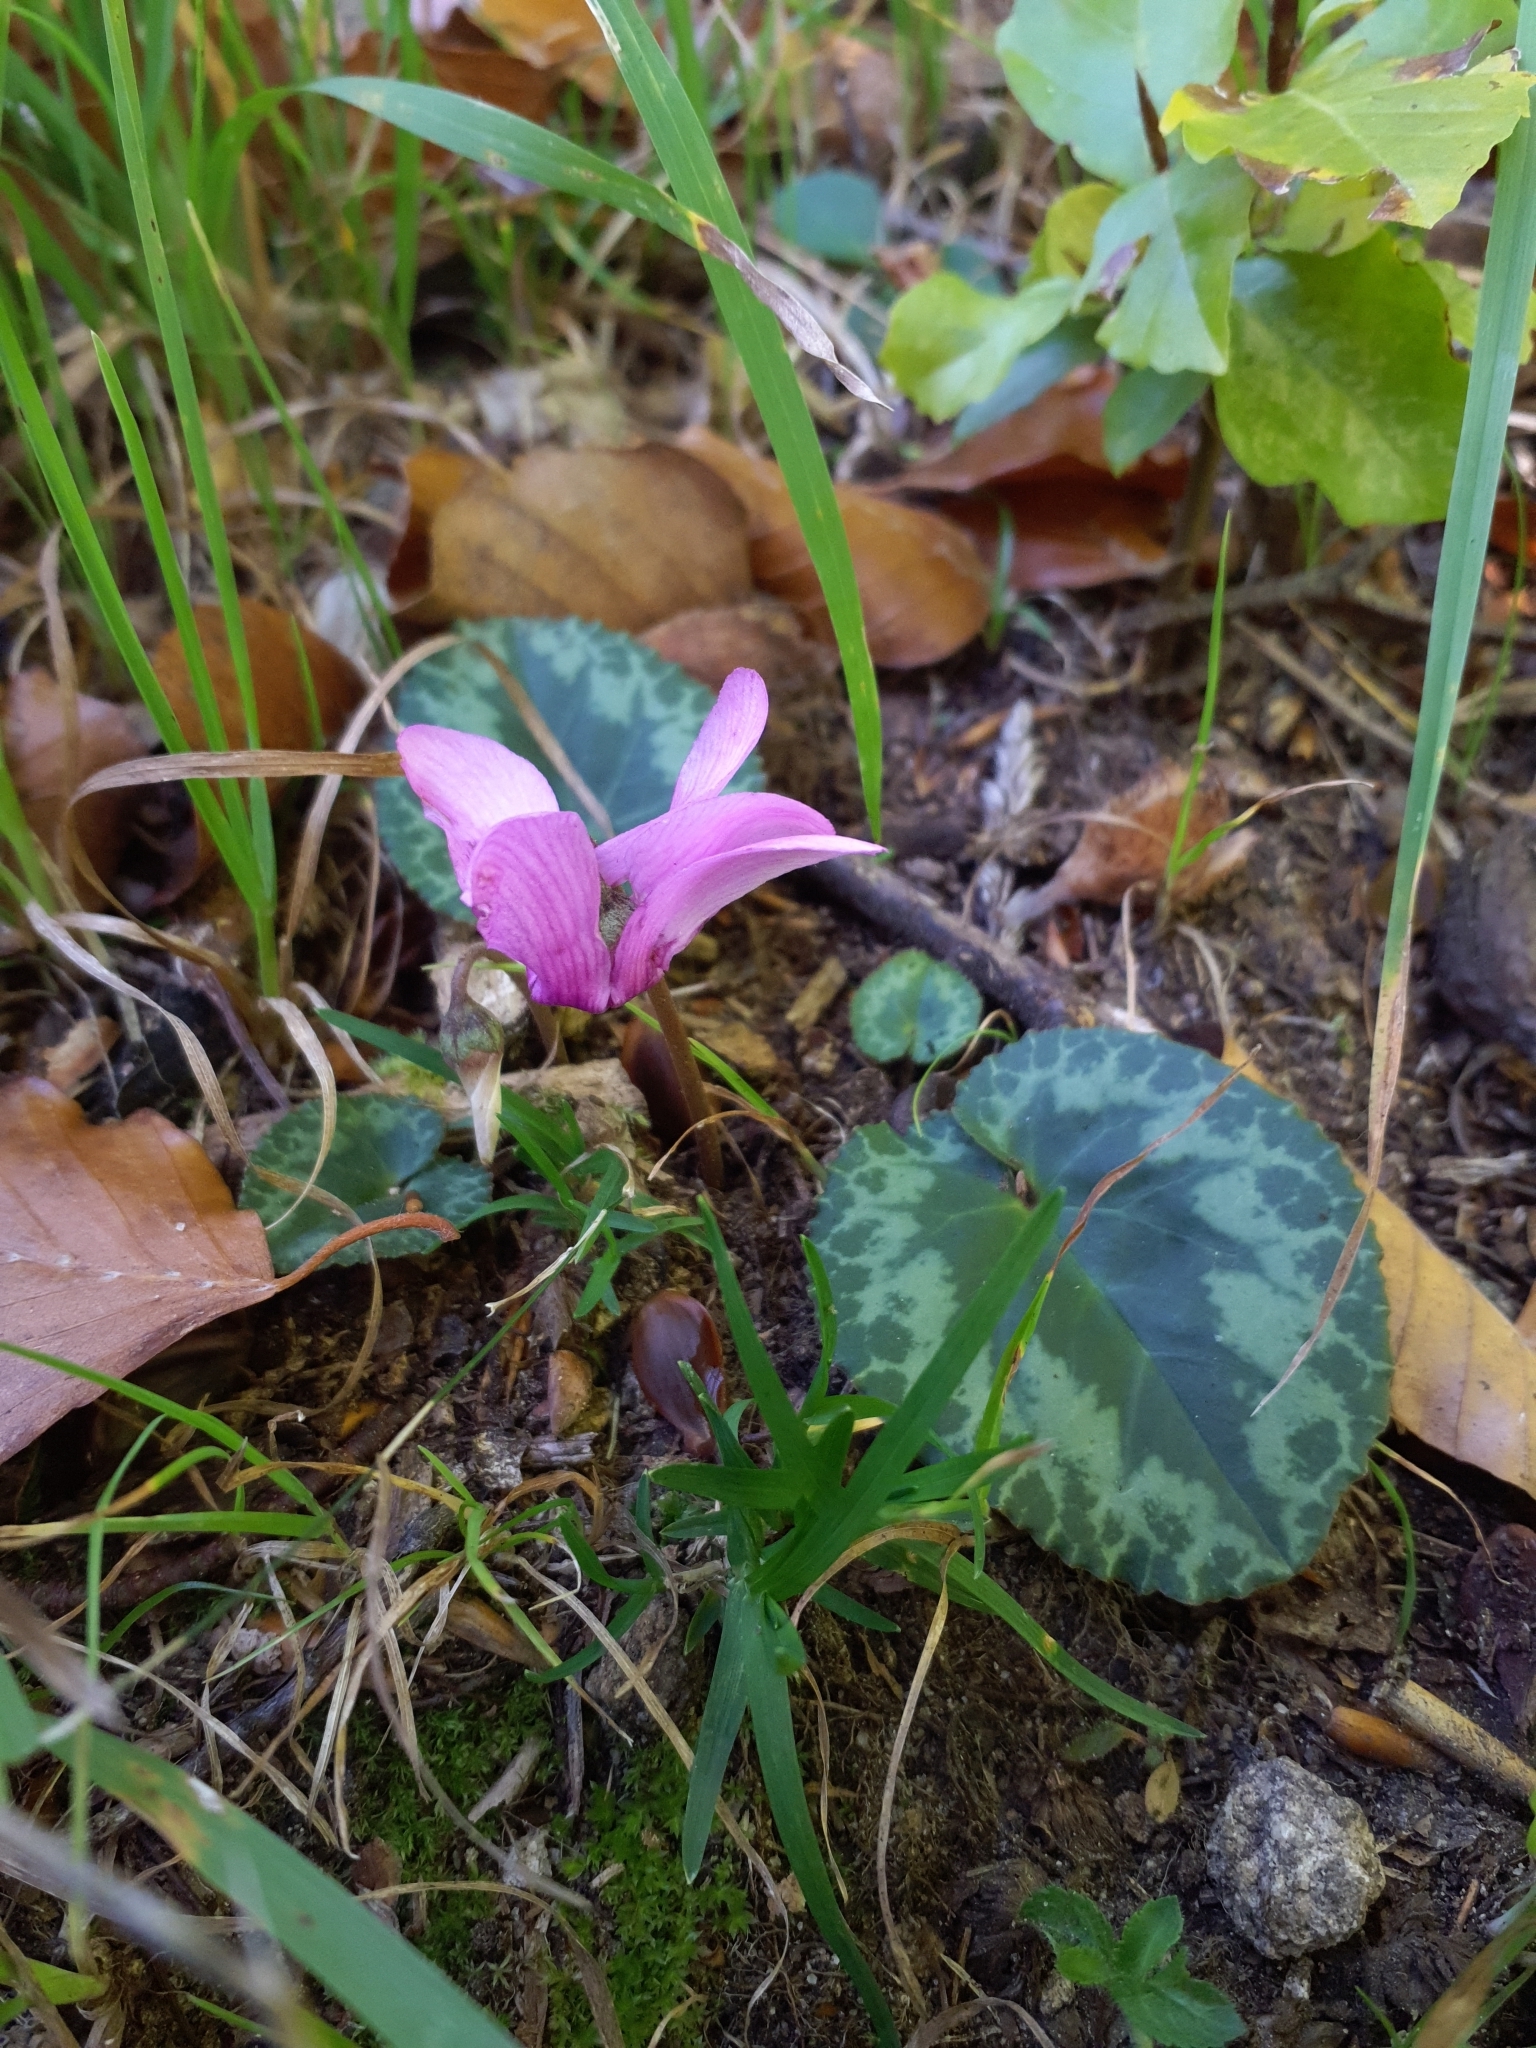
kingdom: Plantae
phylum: Tracheophyta
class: Magnoliopsida
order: Ericales
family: Primulaceae
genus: Cyclamen
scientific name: Cyclamen purpurascens
